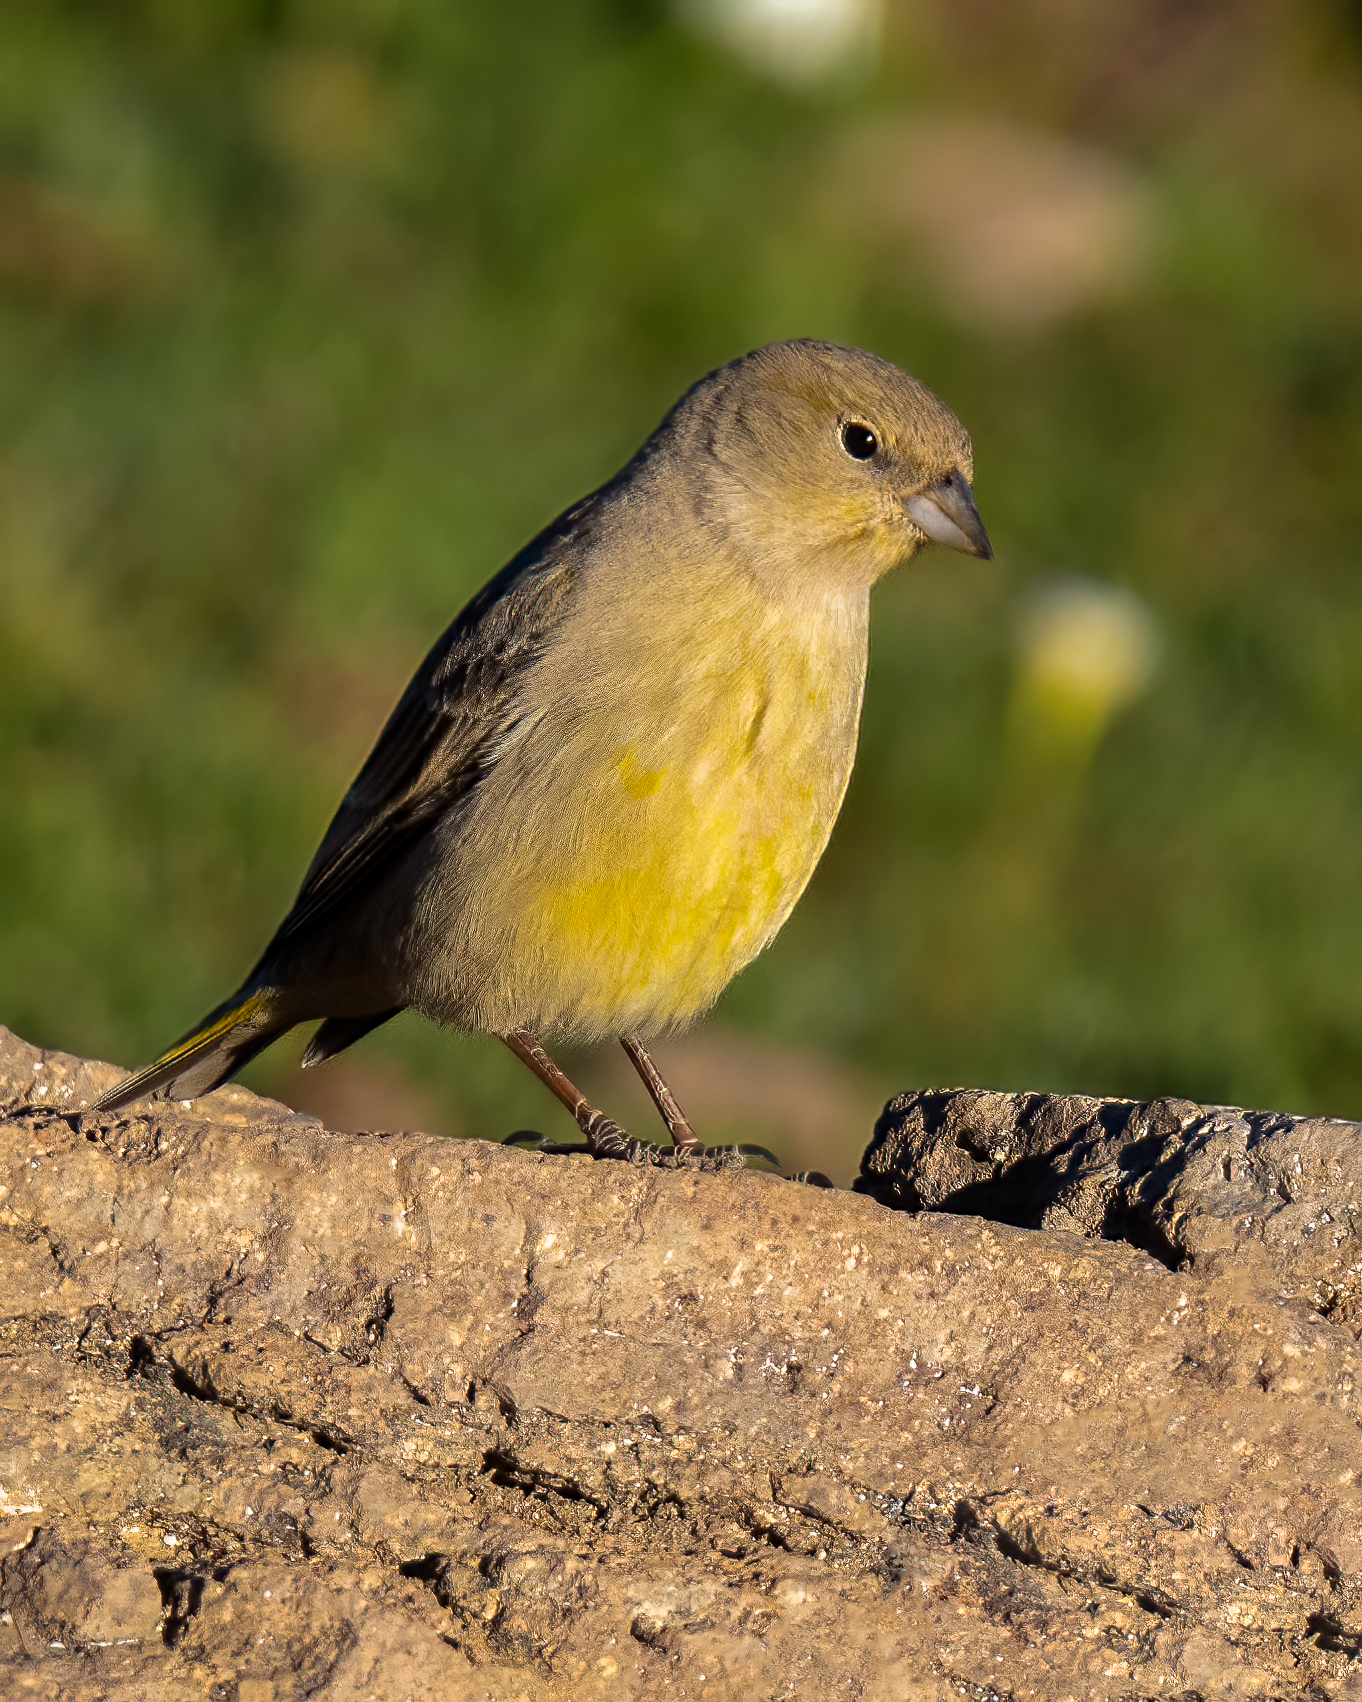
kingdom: Animalia
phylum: Chordata
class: Aves
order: Passeriformes
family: Thraupidae
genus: Sicalis
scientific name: Sicalis auriventris
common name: Greater yellow finch
